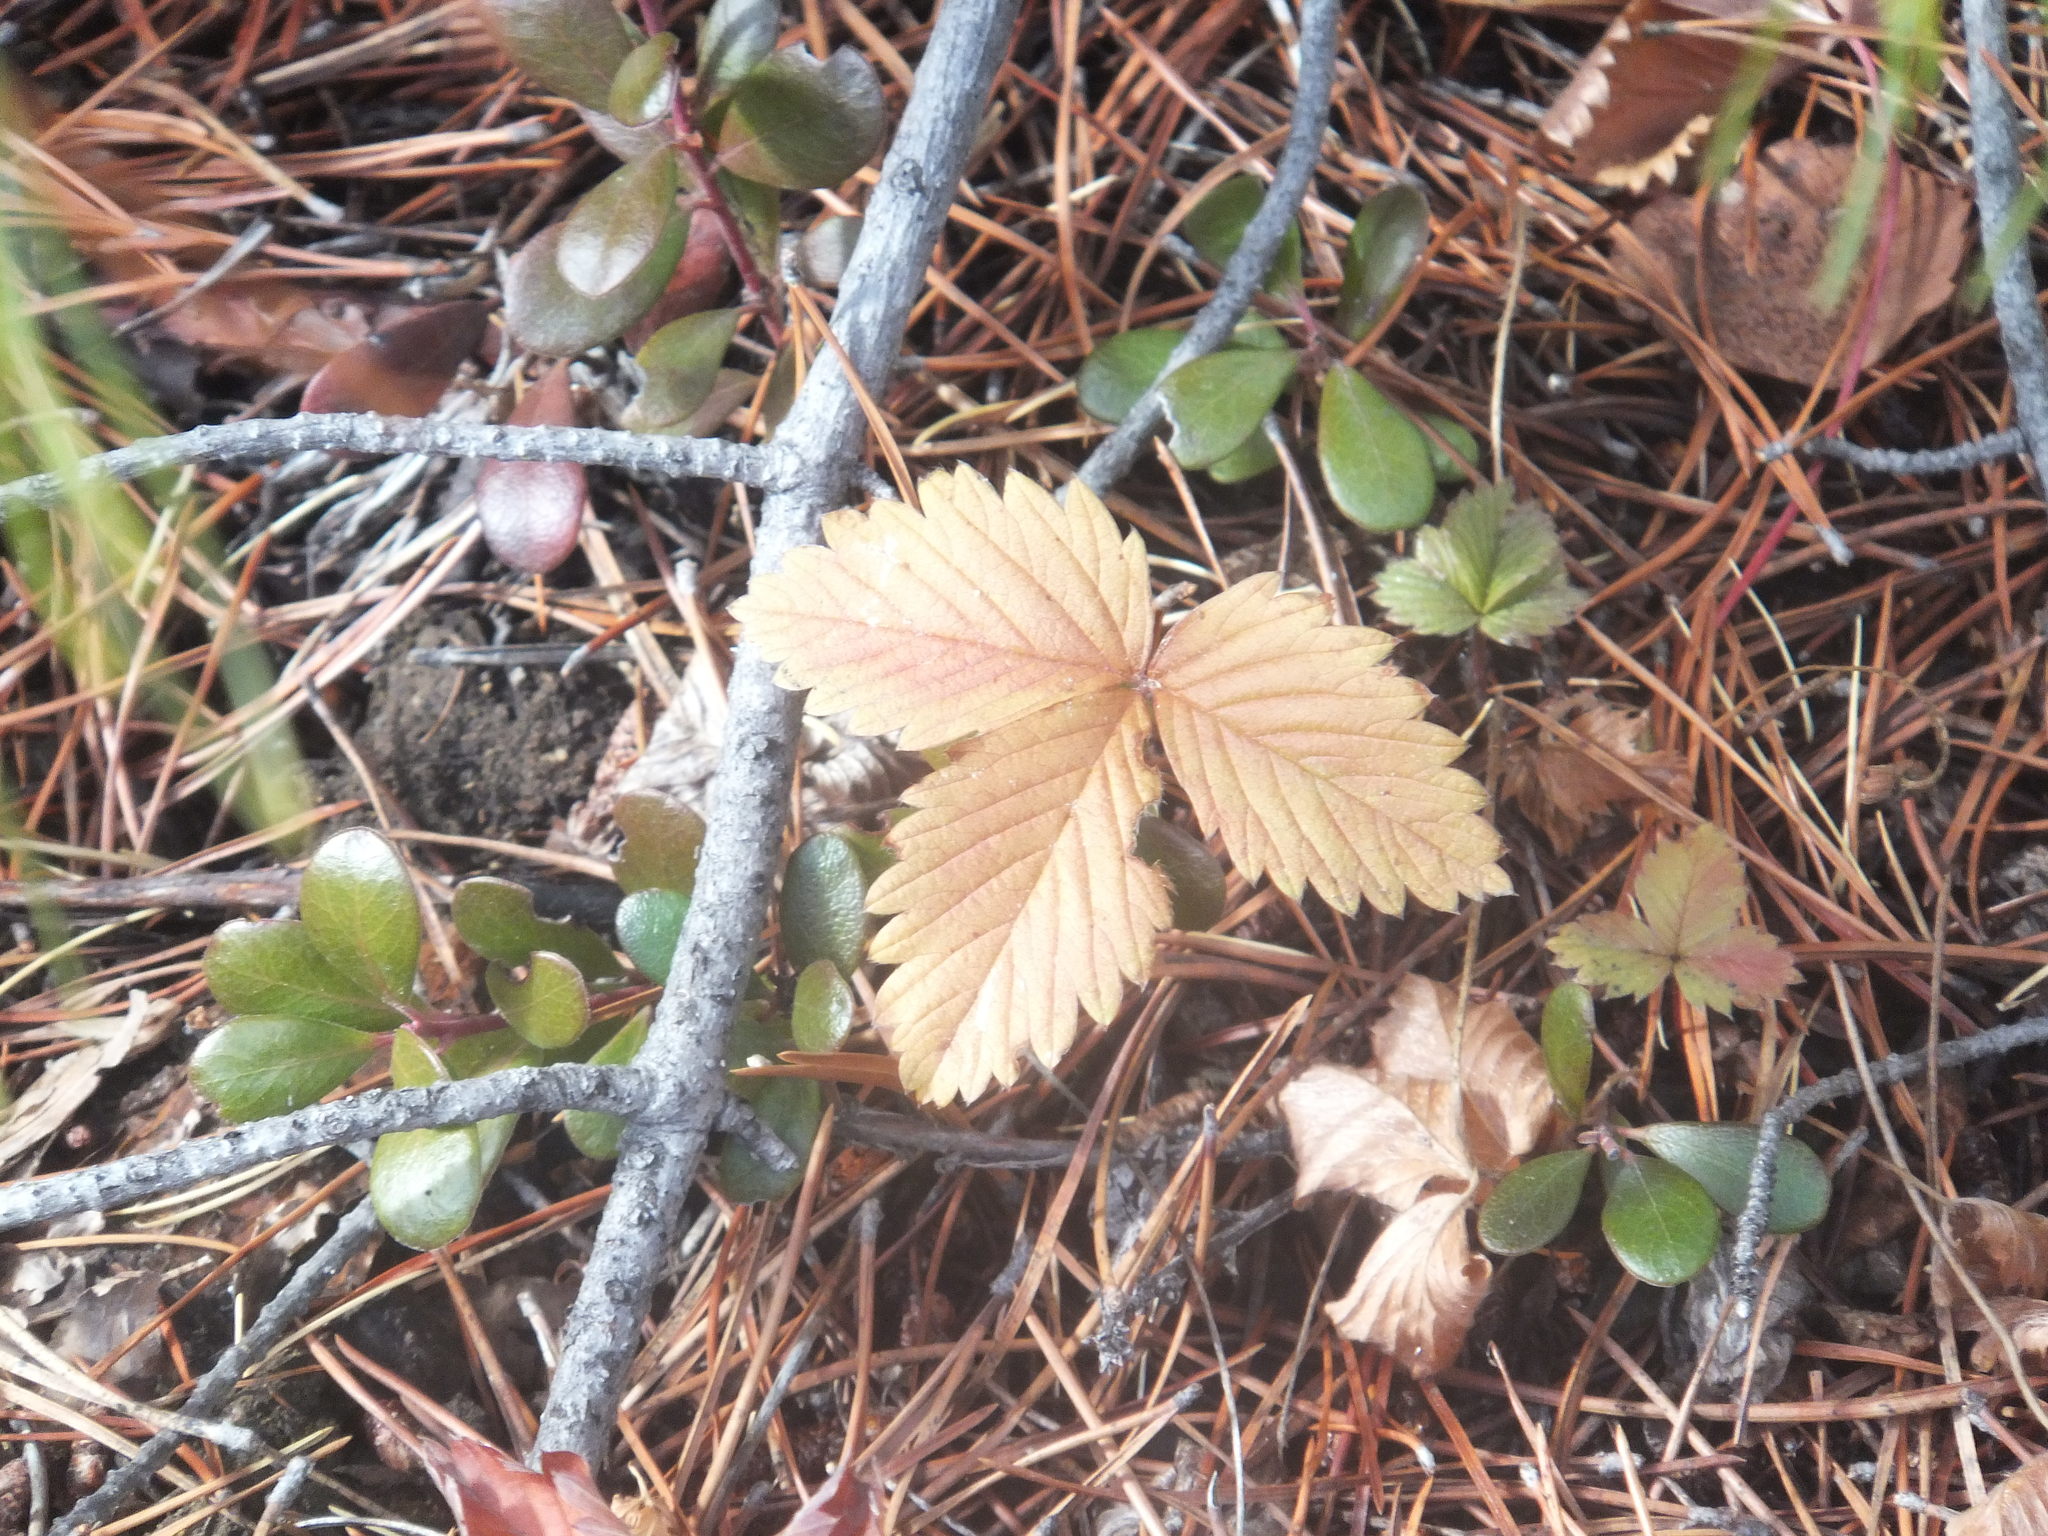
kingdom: Plantae
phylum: Tracheophyta
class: Magnoliopsida
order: Rosales
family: Rosaceae
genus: Fragaria
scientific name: Fragaria vesca
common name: Wild strawberry
